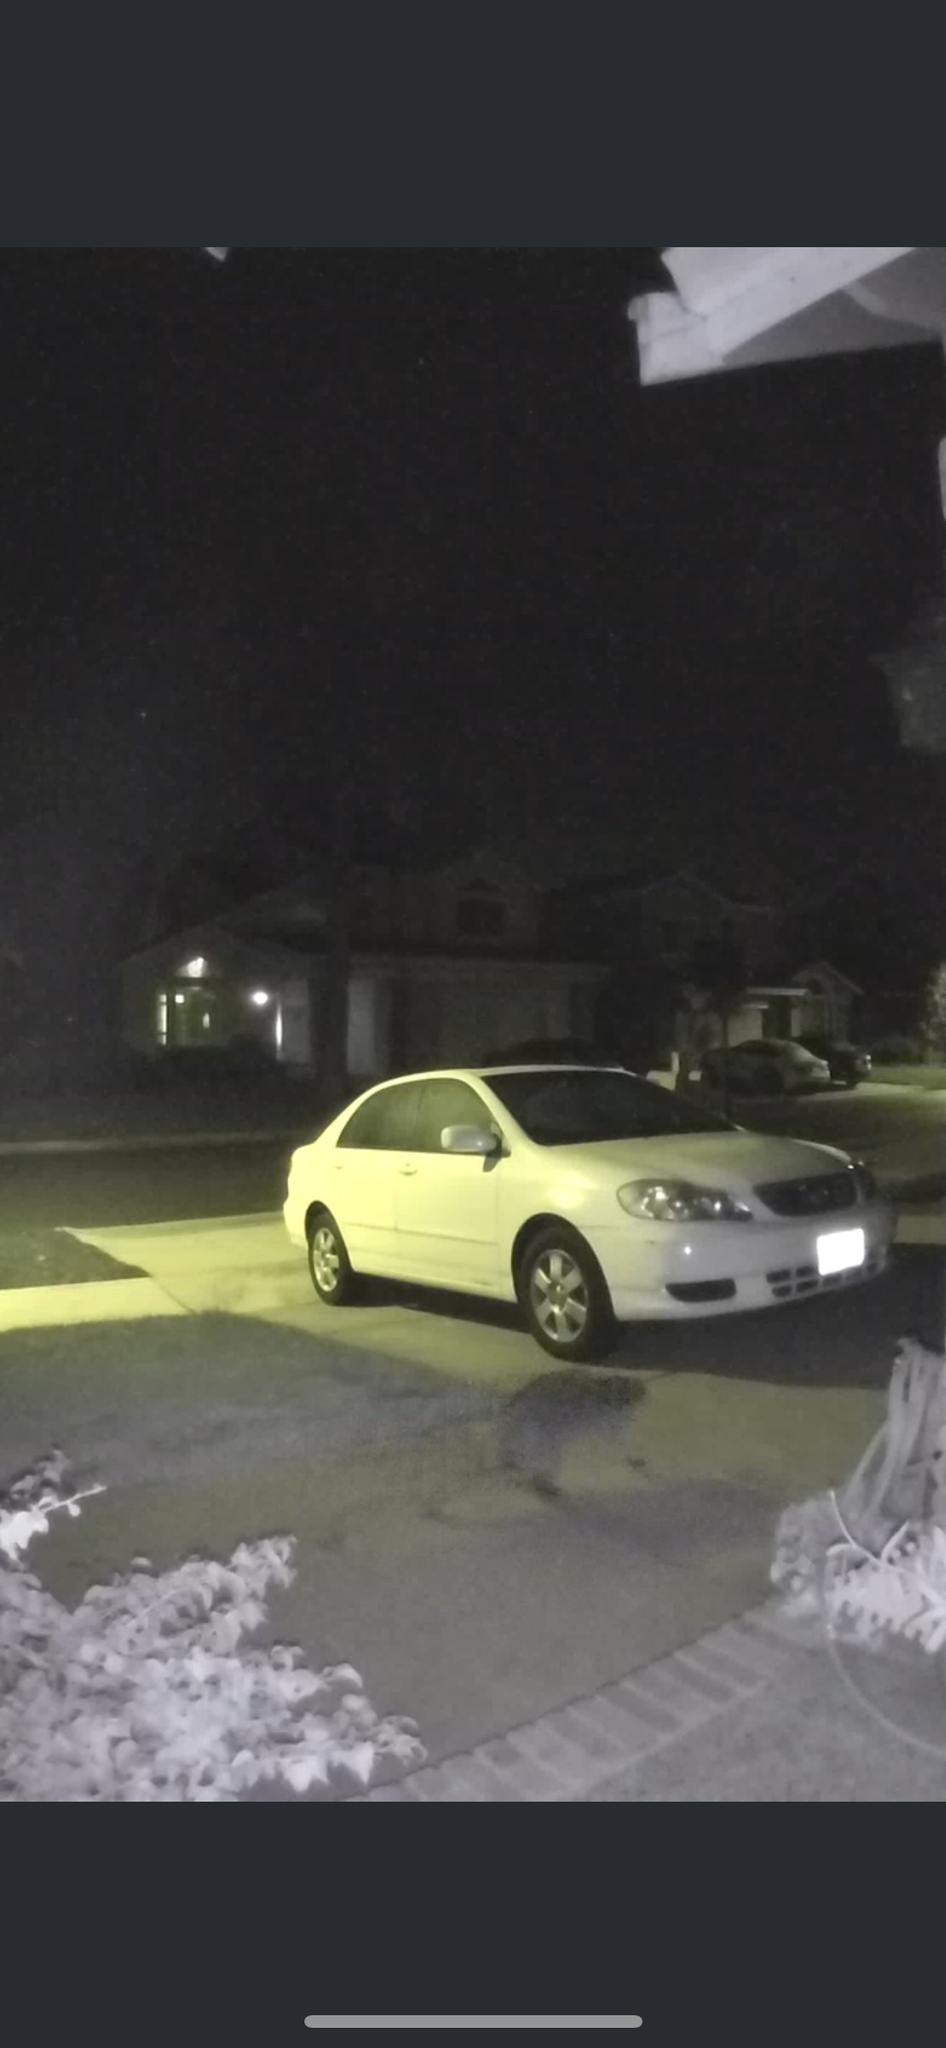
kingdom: Animalia
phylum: Chordata
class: Mammalia
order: Carnivora
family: Procyonidae
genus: Procyon
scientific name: Procyon lotor
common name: Raccoon
